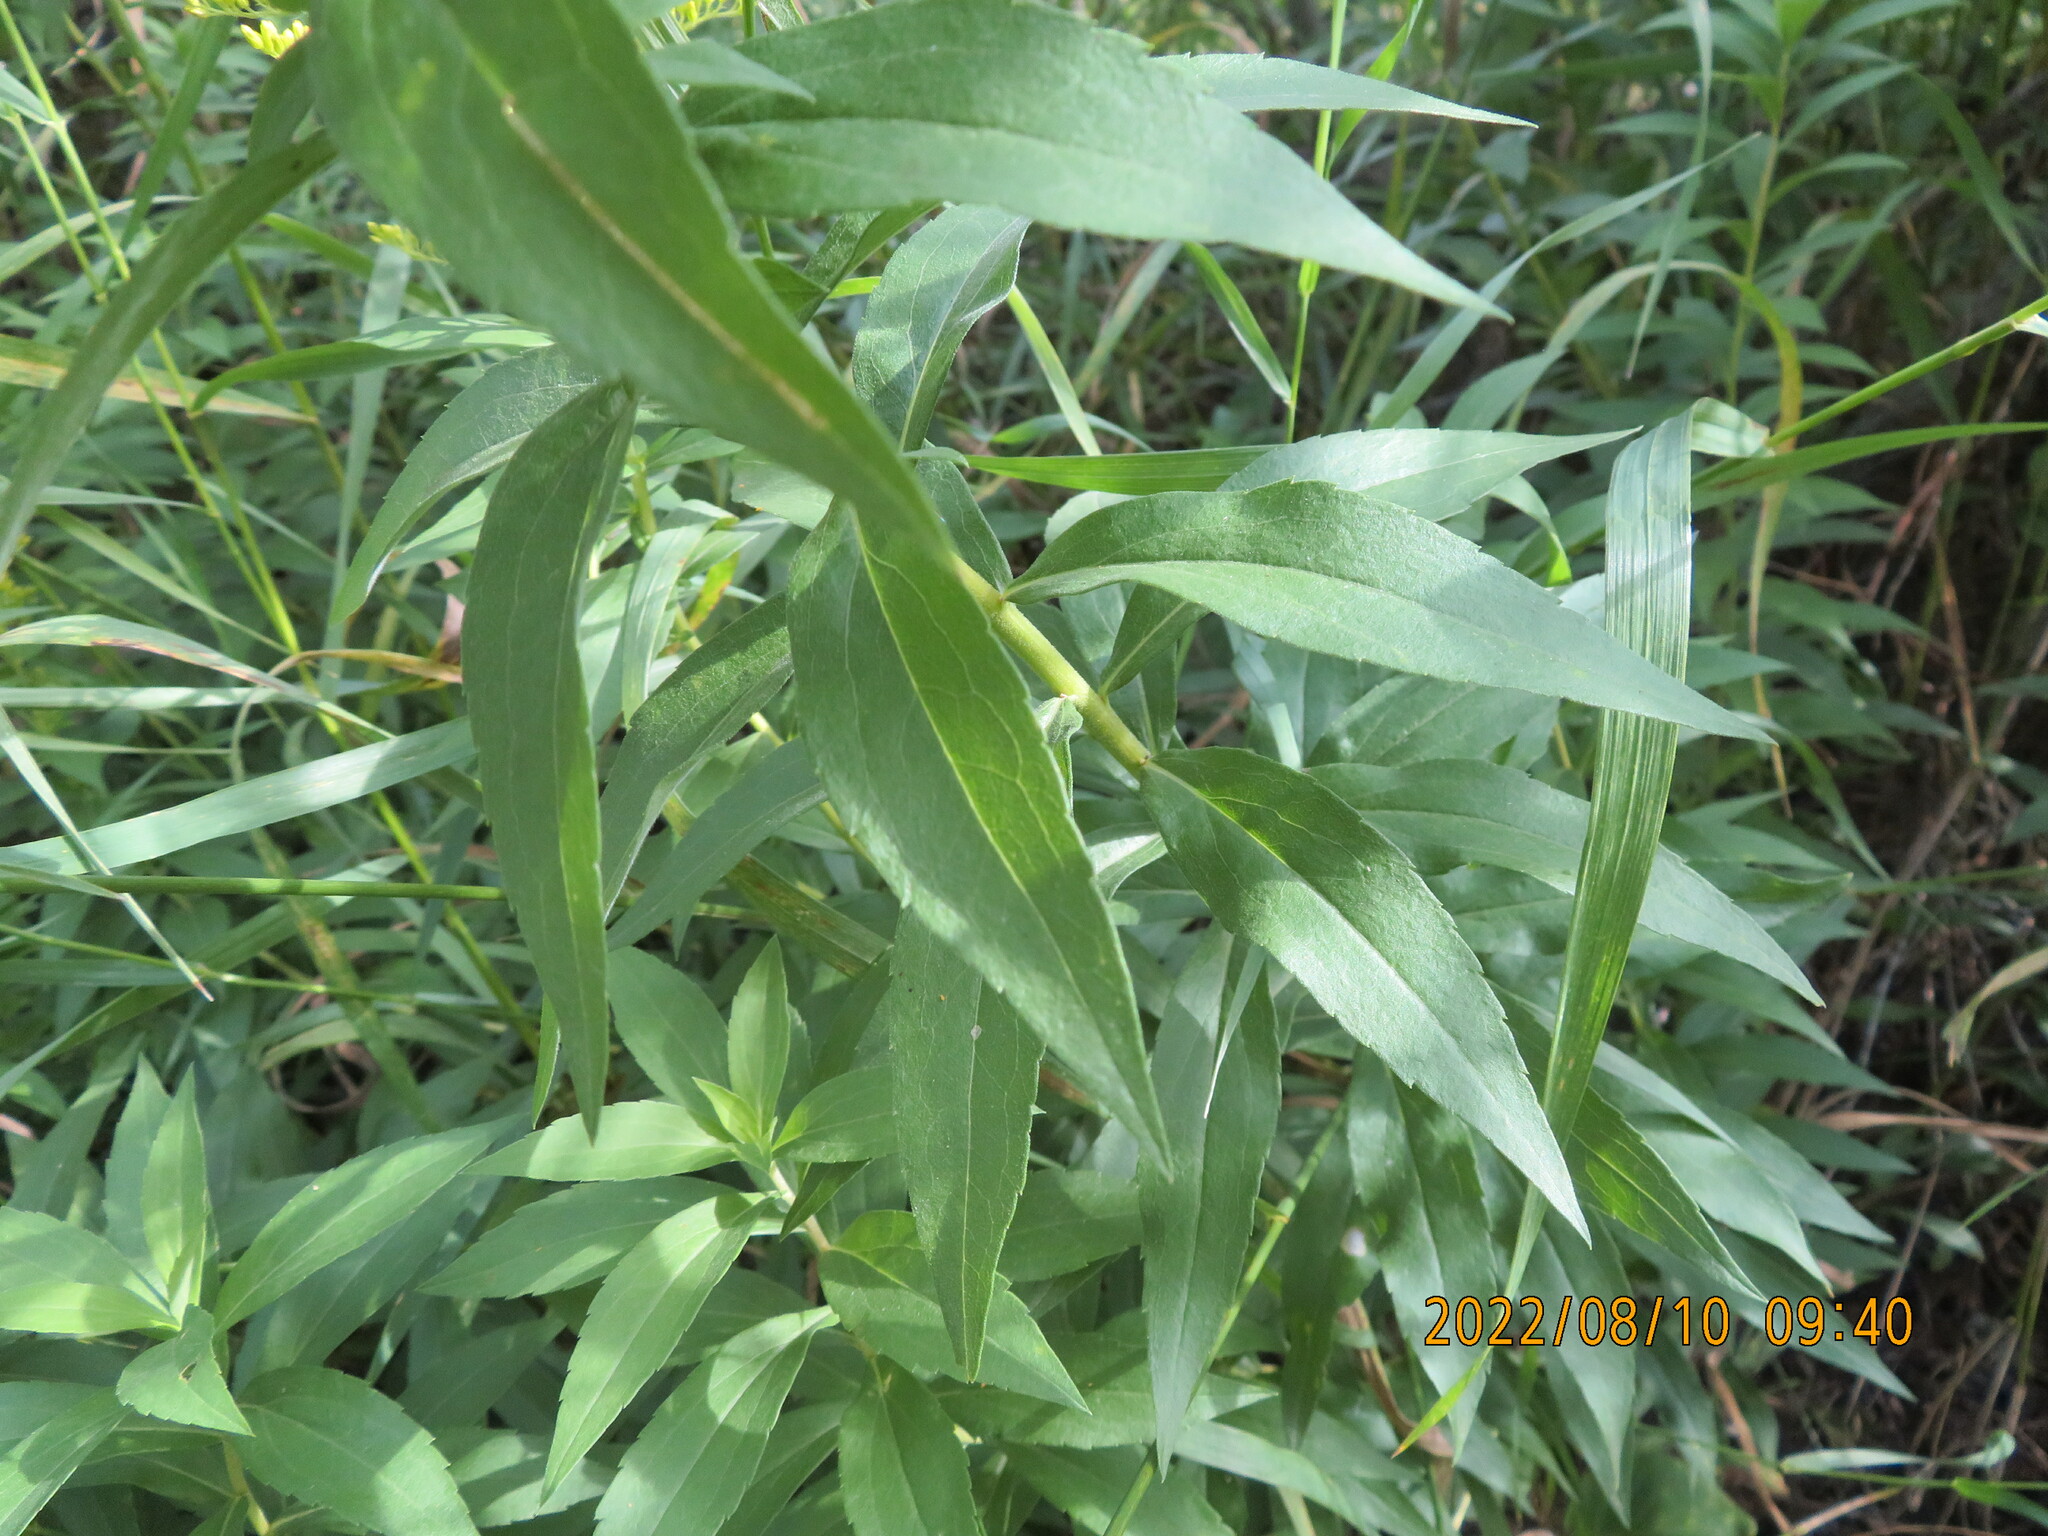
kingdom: Plantae
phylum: Tracheophyta
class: Magnoliopsida
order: Asterales
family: Asteraceae
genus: Solidago
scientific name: Solidago lepida
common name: Western canada goldenrod
